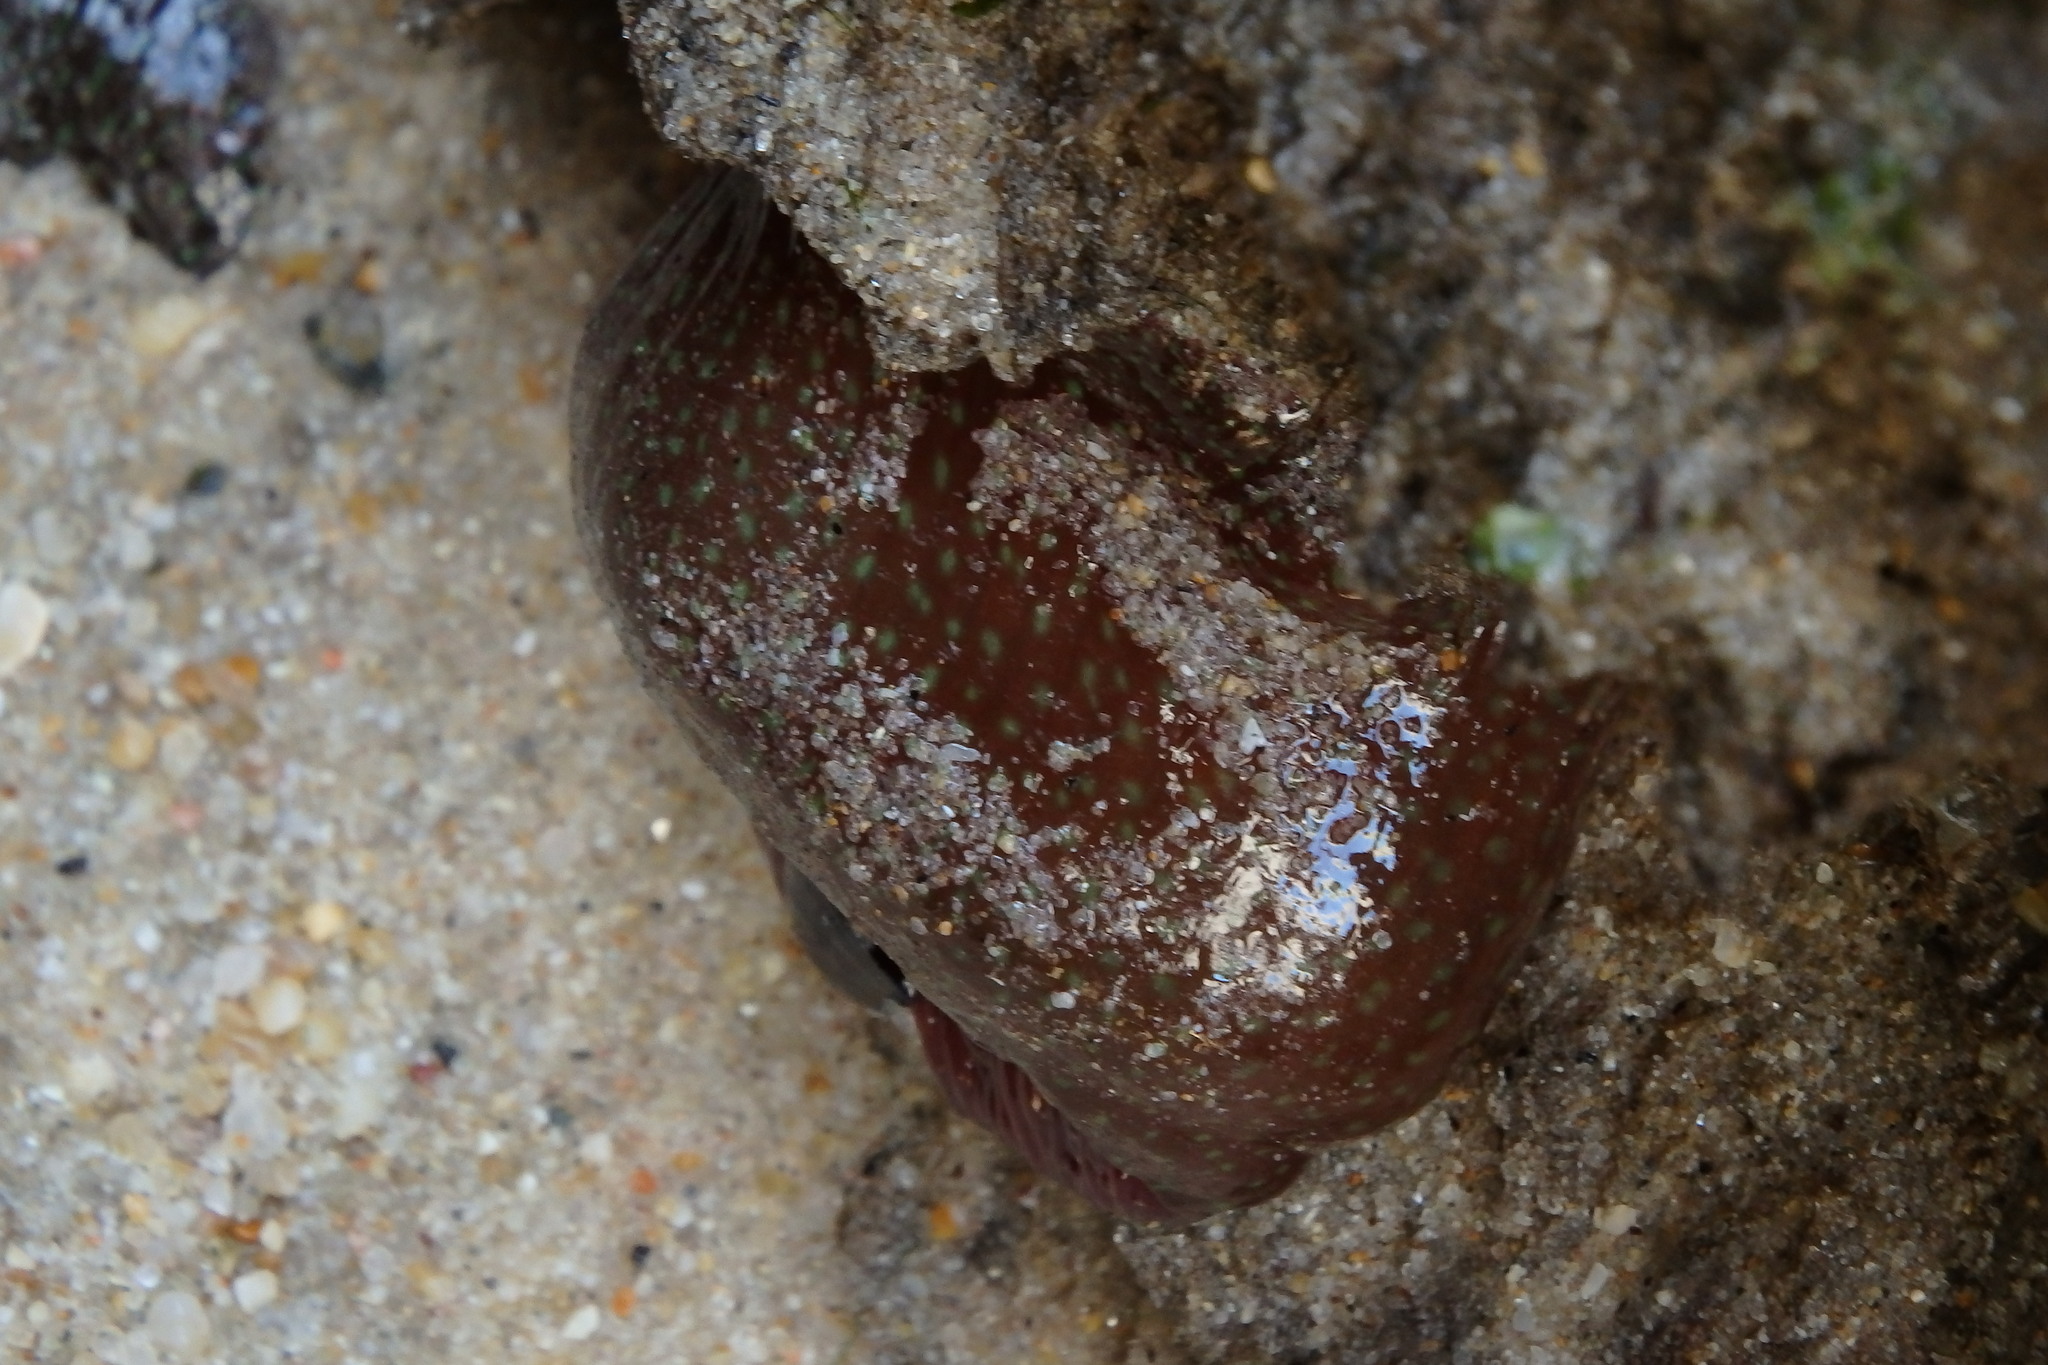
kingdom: Animalia
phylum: Cnidaria
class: Anthozoa
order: Actiniaria
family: Actiniidae
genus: Actinia
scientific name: Actinia fragacea
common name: Strawberry anemone
